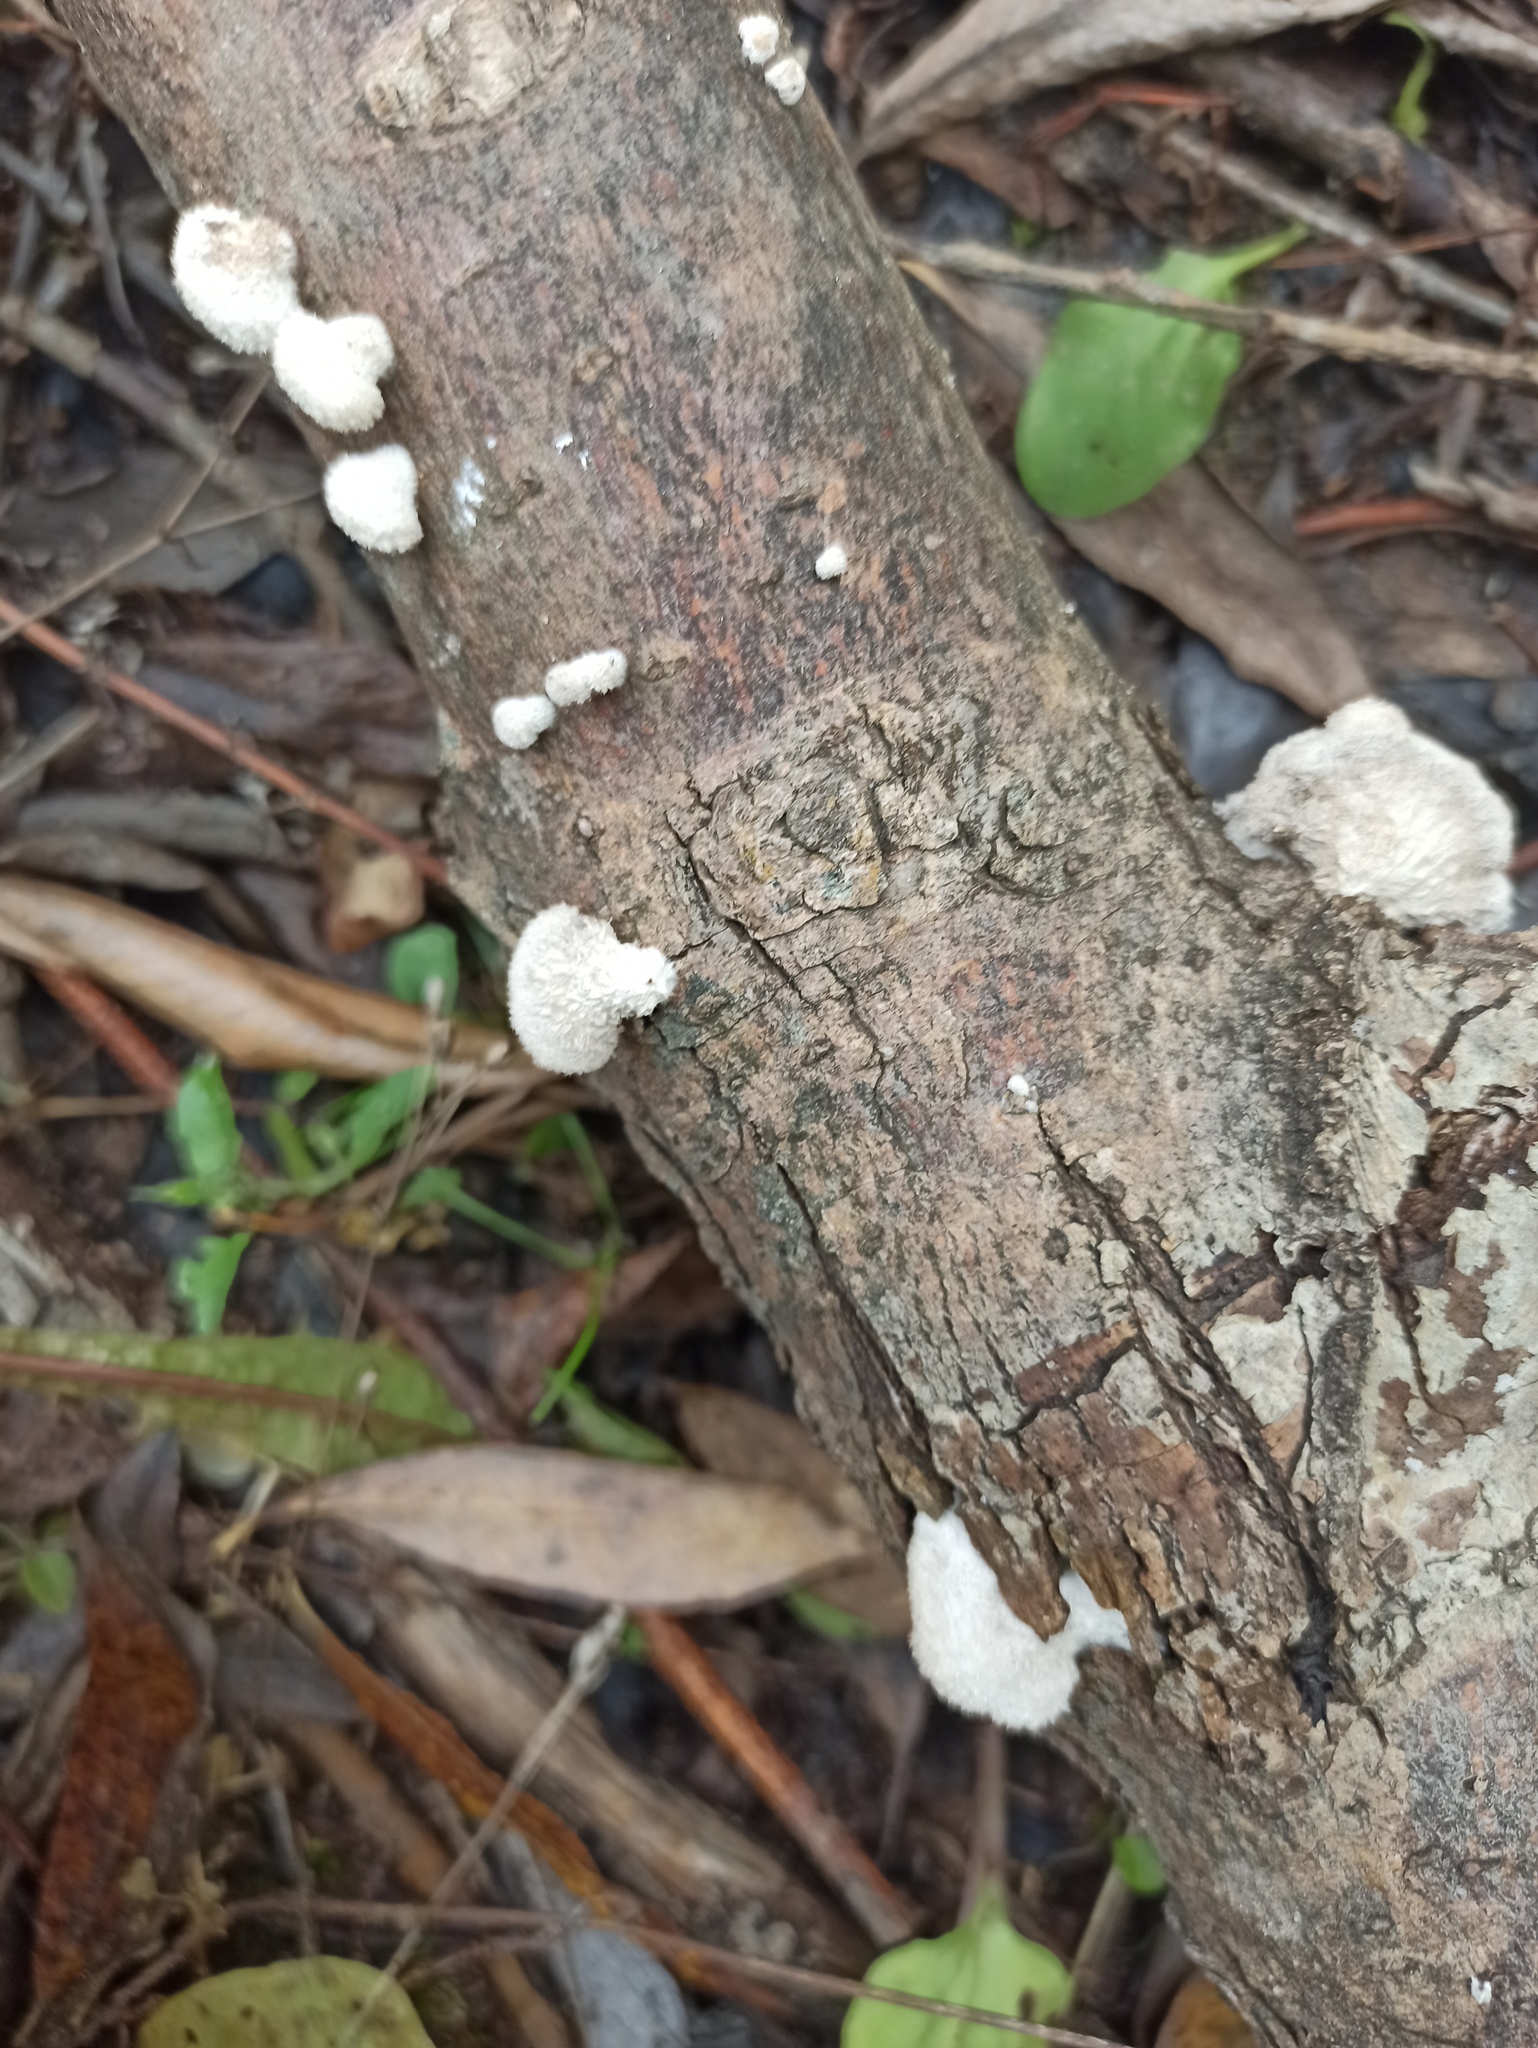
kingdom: Fungi
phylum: Basidiomycota
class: Agaricomycetes
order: Agaricales
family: Schizophyllaceae
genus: Schizophyllum
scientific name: Schizophyllum commune
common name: Common porecrust
